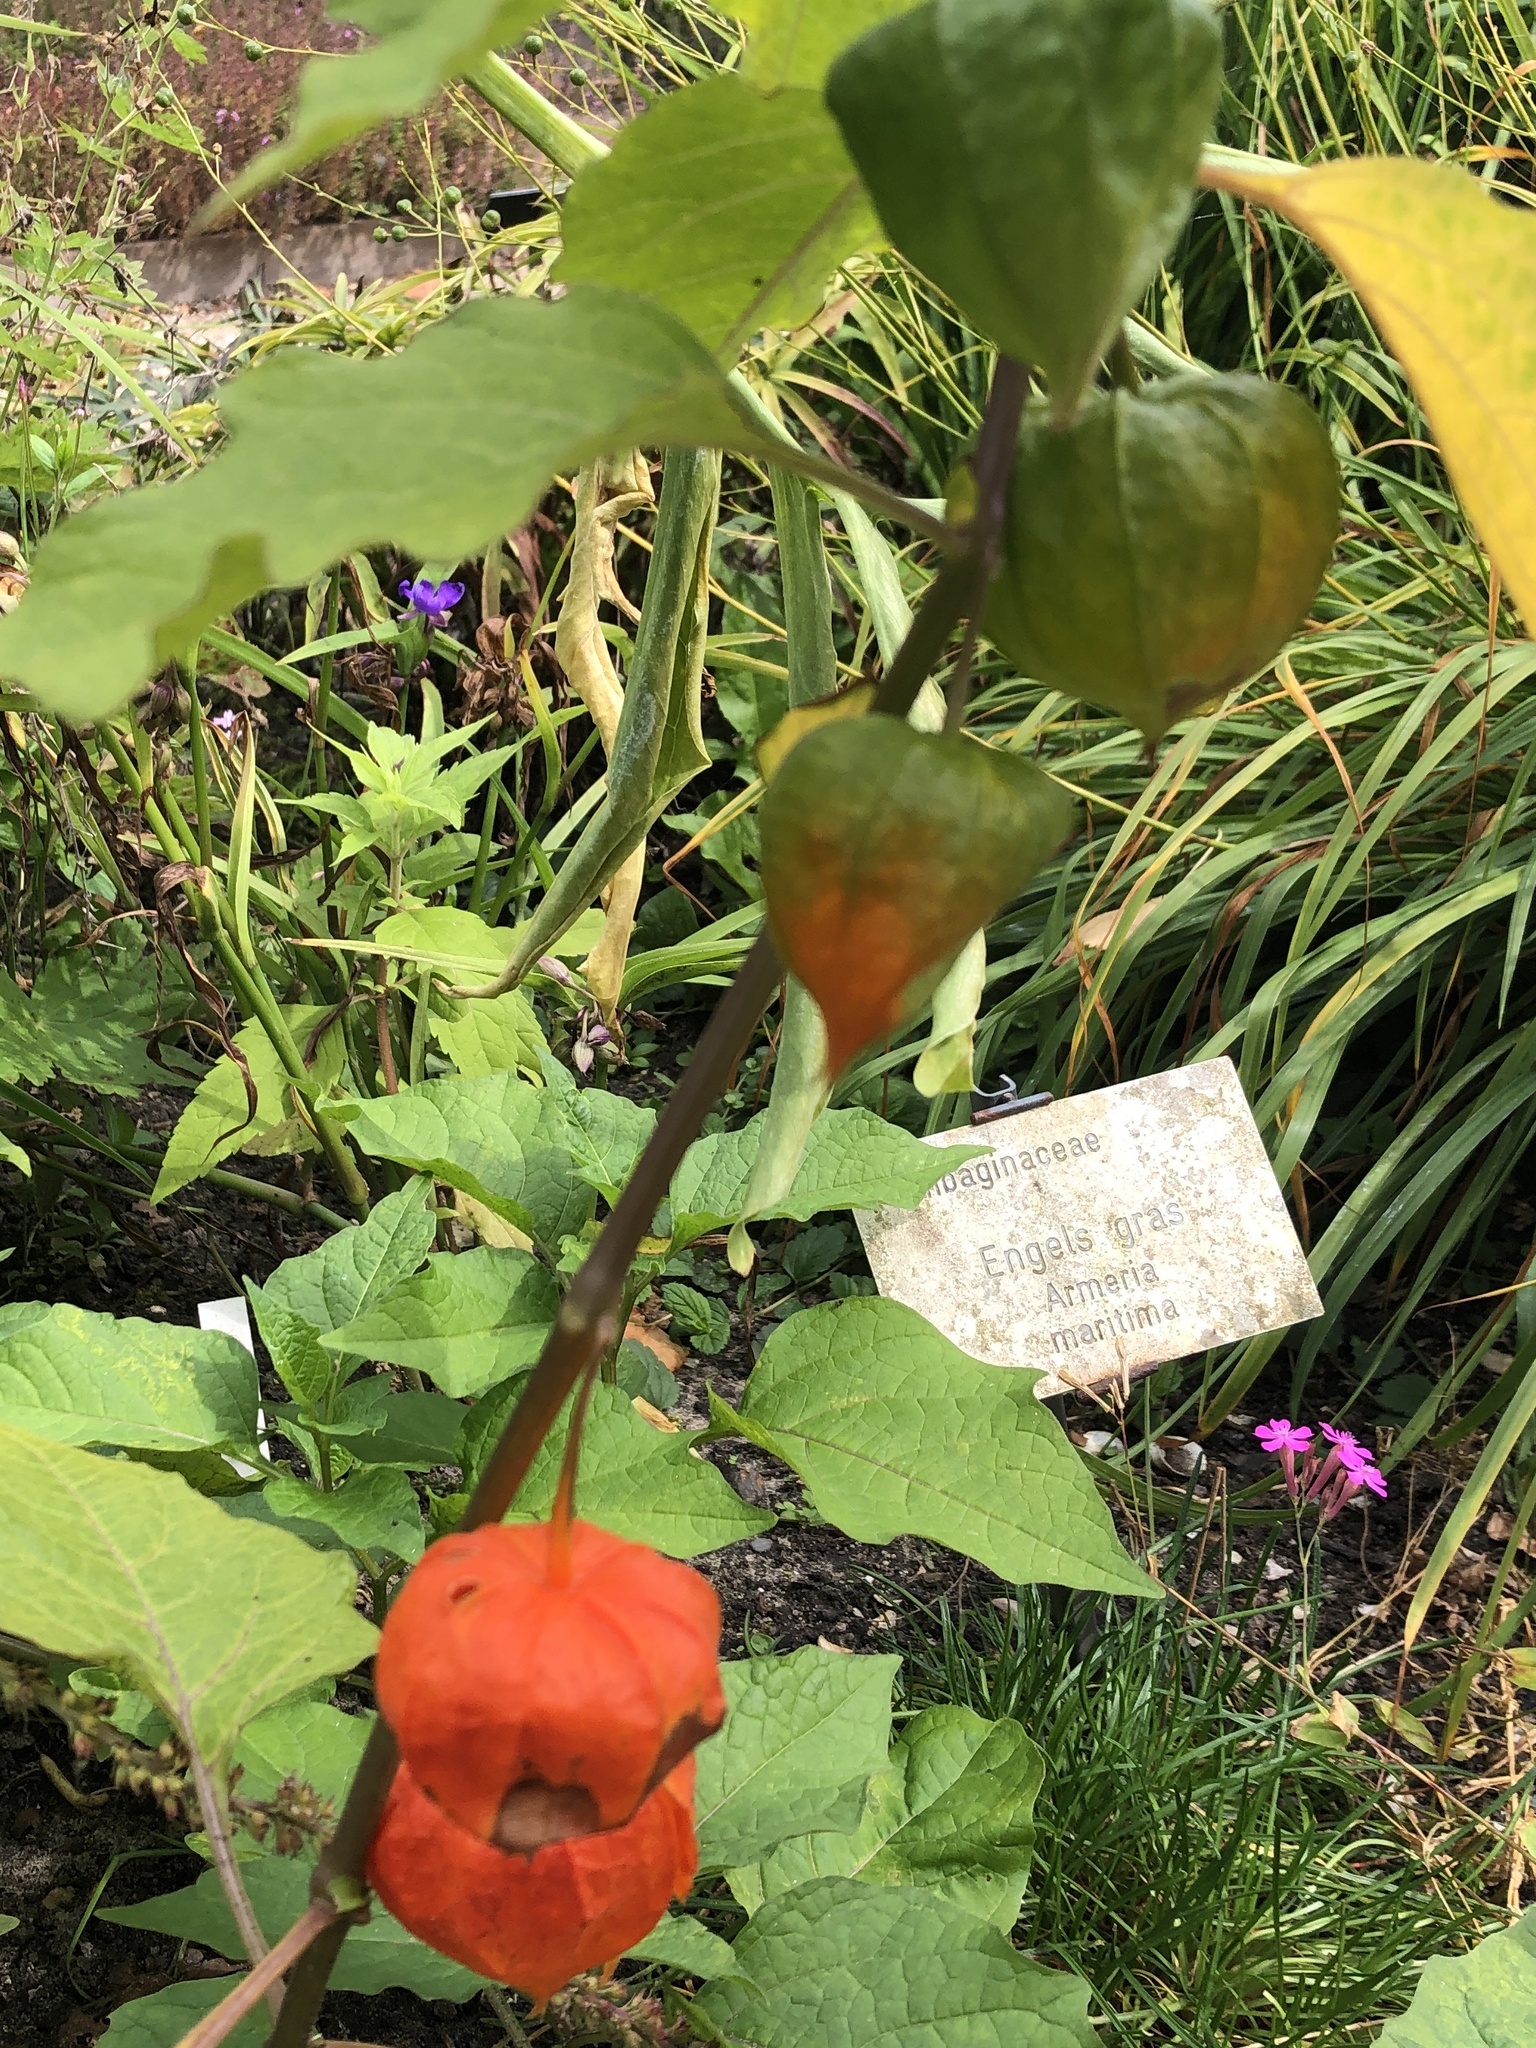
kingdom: Plantae
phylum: Tracheophyta
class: Magnoliopsida
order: Solanales
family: Solanaceae
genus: Alkekengi
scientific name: Alkekengi officinarum
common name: Japanese-lantern
